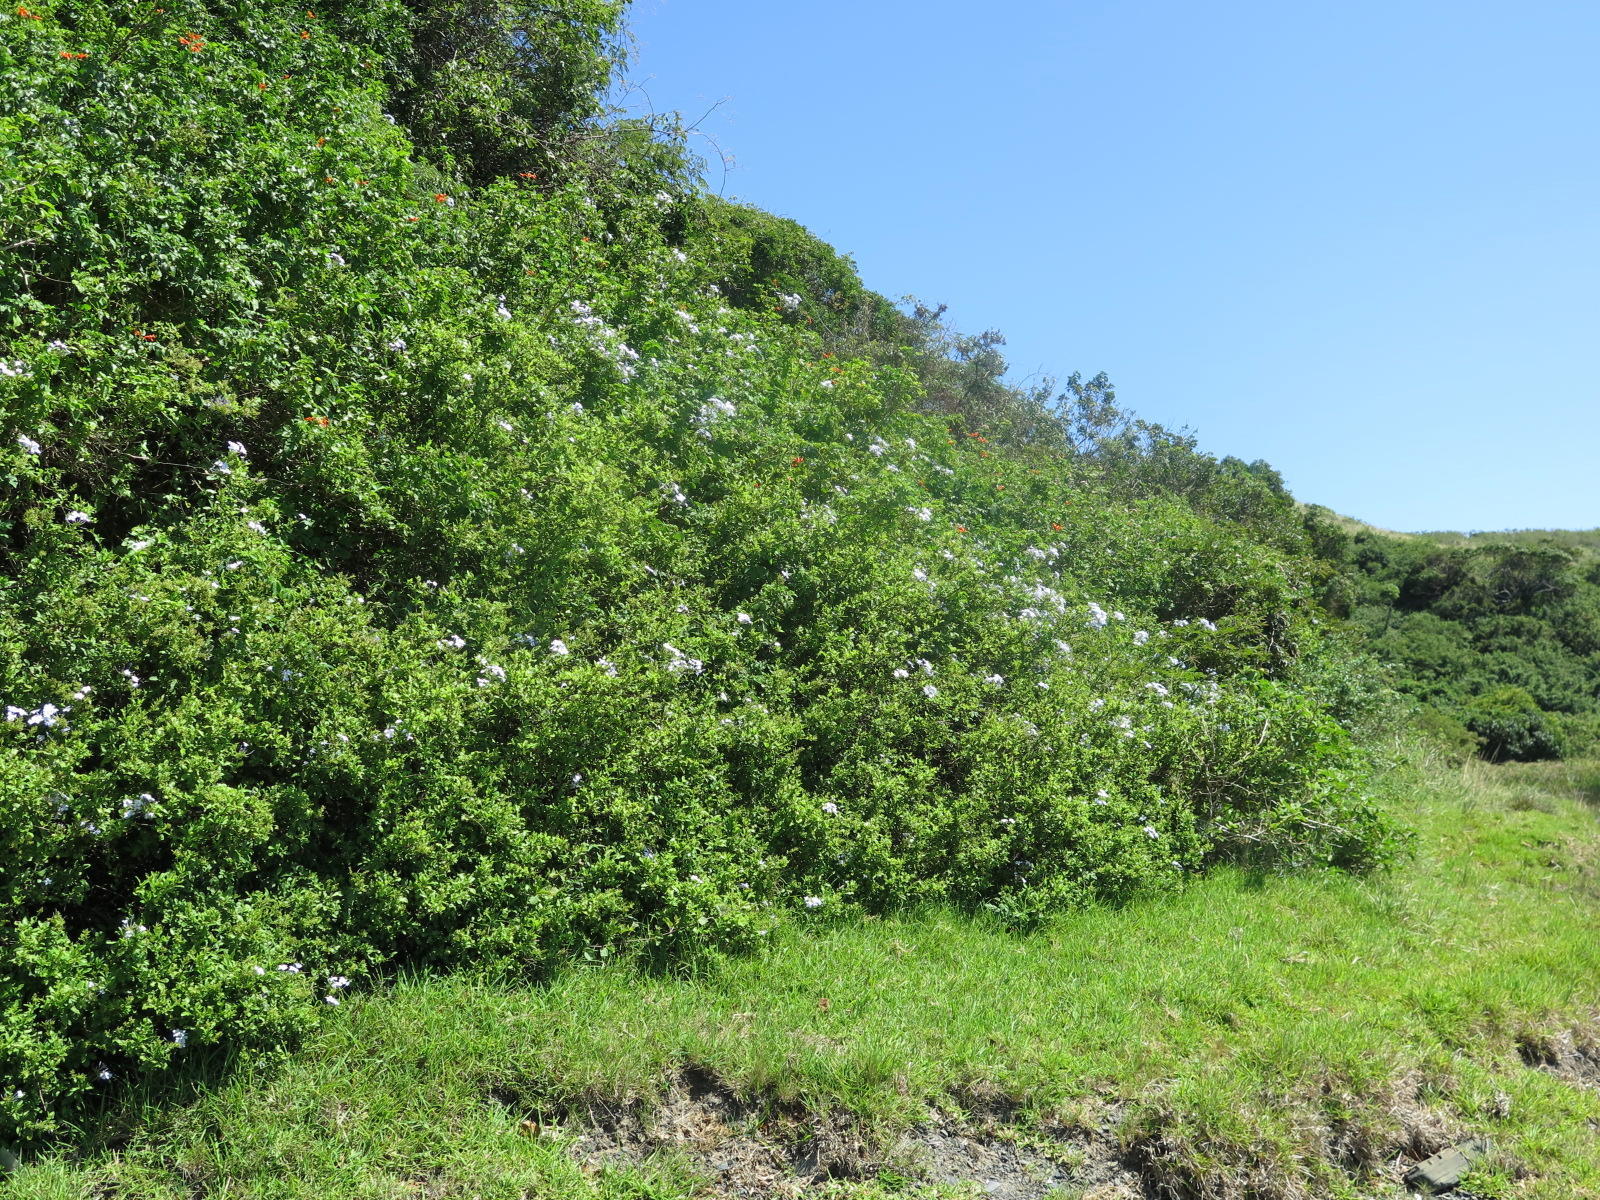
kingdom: Plantae
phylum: Tracheophyta
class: Magnoliopsida
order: Caryophyllales
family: Plumbaginaceae
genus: Plumbago
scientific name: Plumbago auriculata
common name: Cape leadwort
